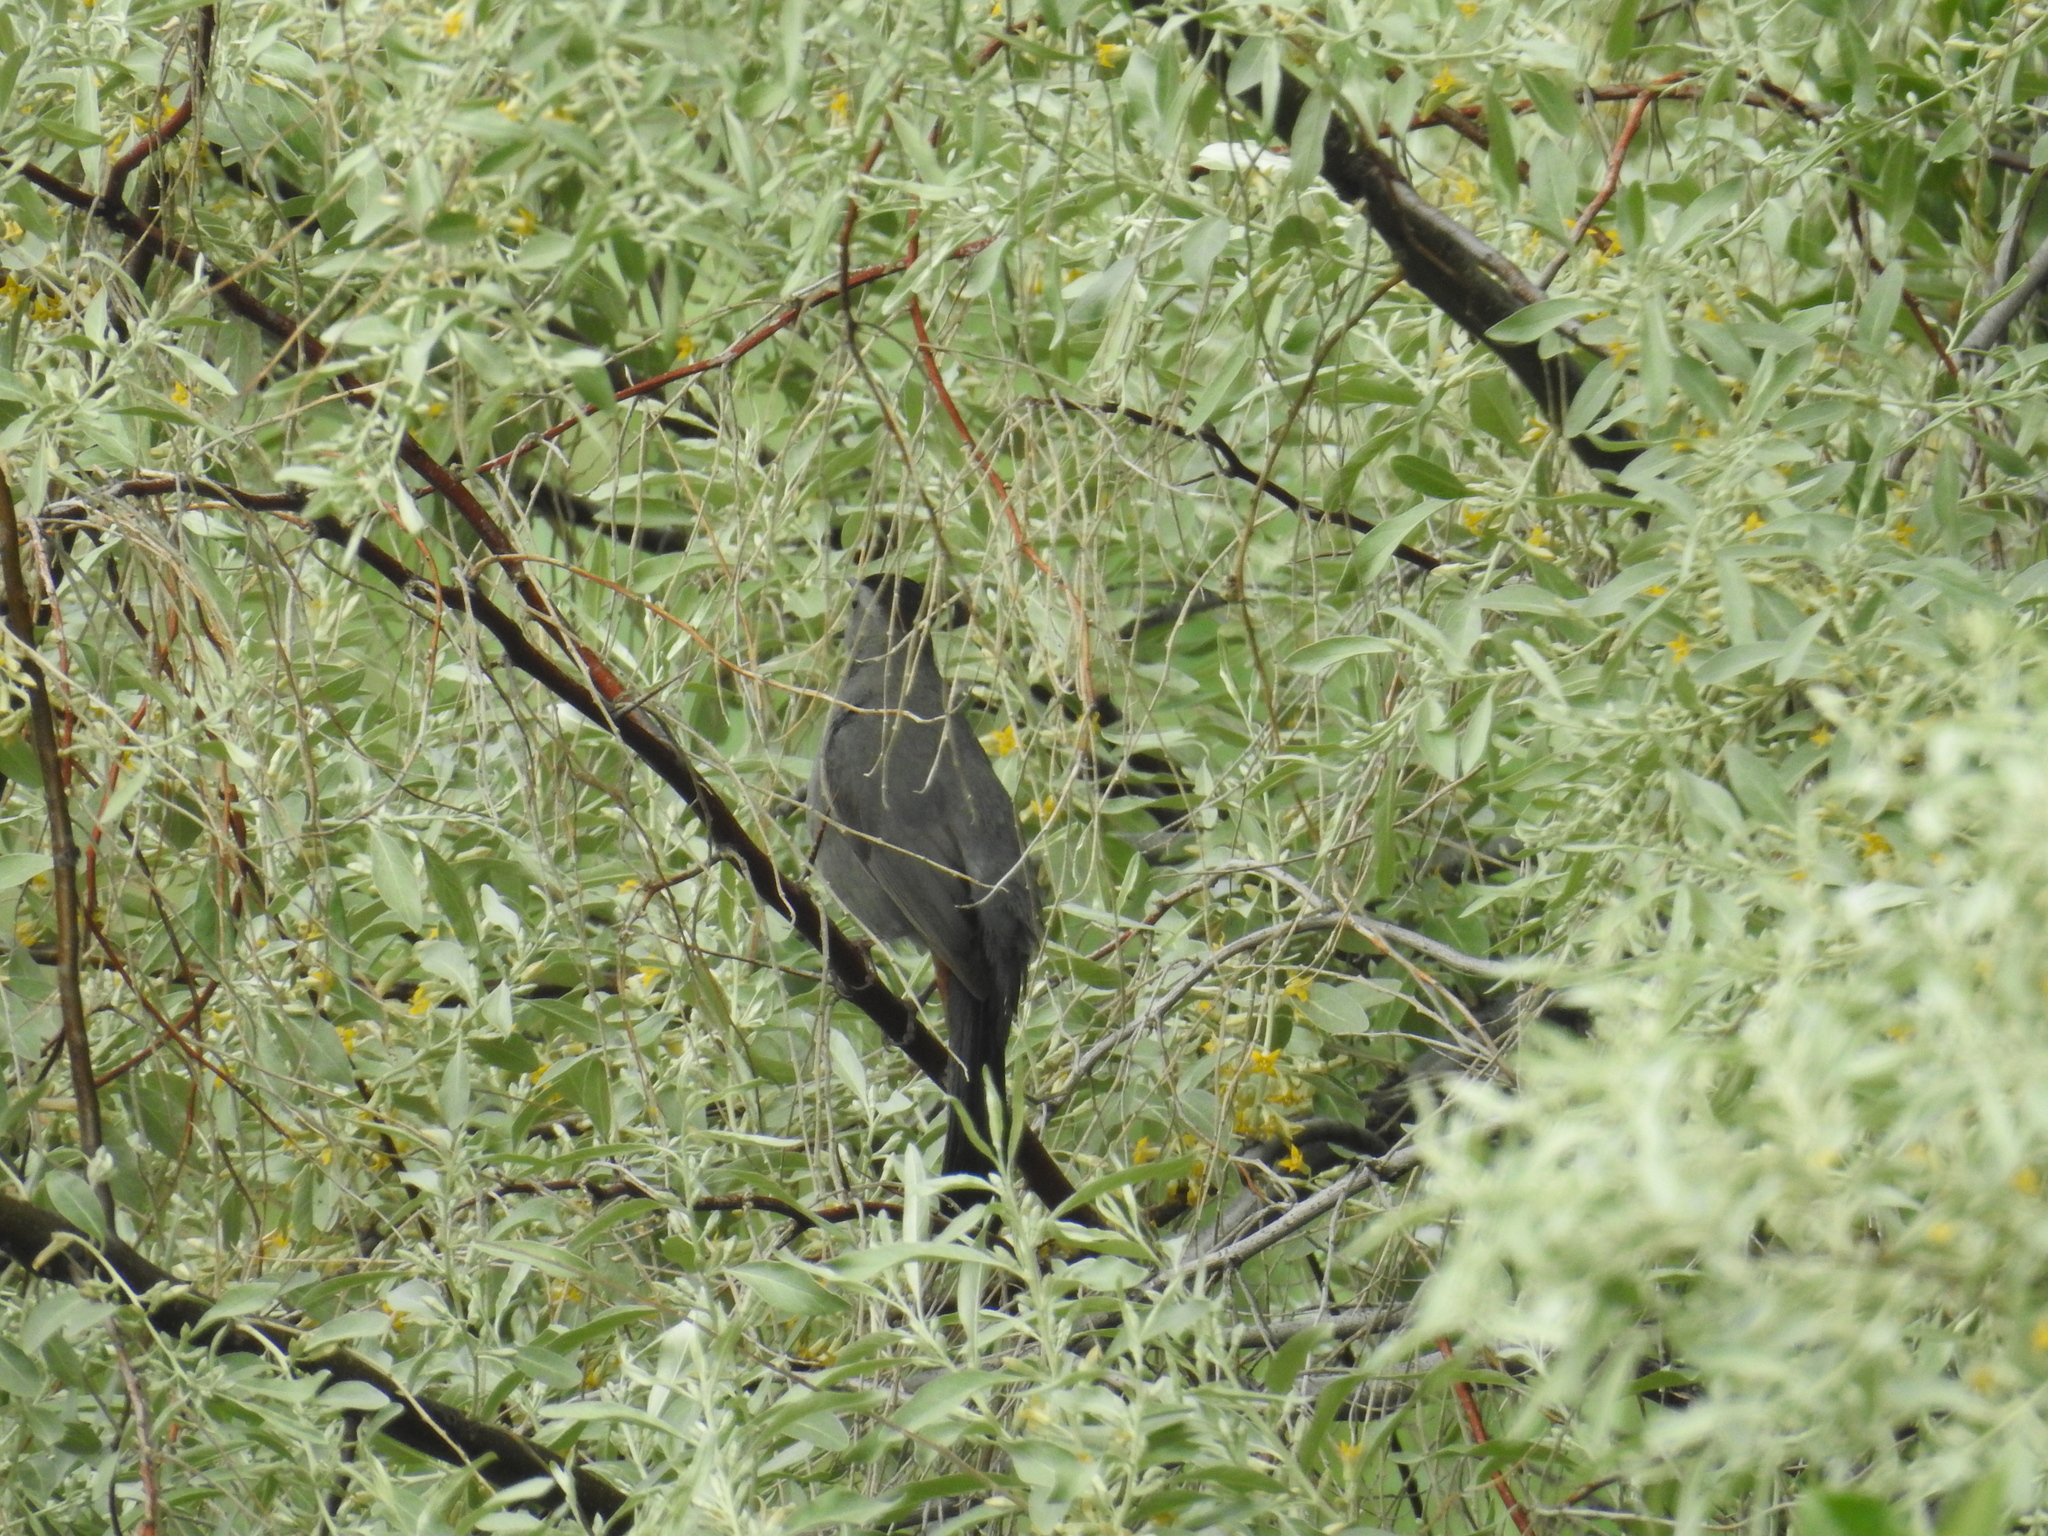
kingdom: Animalia
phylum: Chordata
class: Aves
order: Passeriformes
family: Mimidae
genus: Dumetella
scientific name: Dumetella carolinensis
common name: Gray catbird
